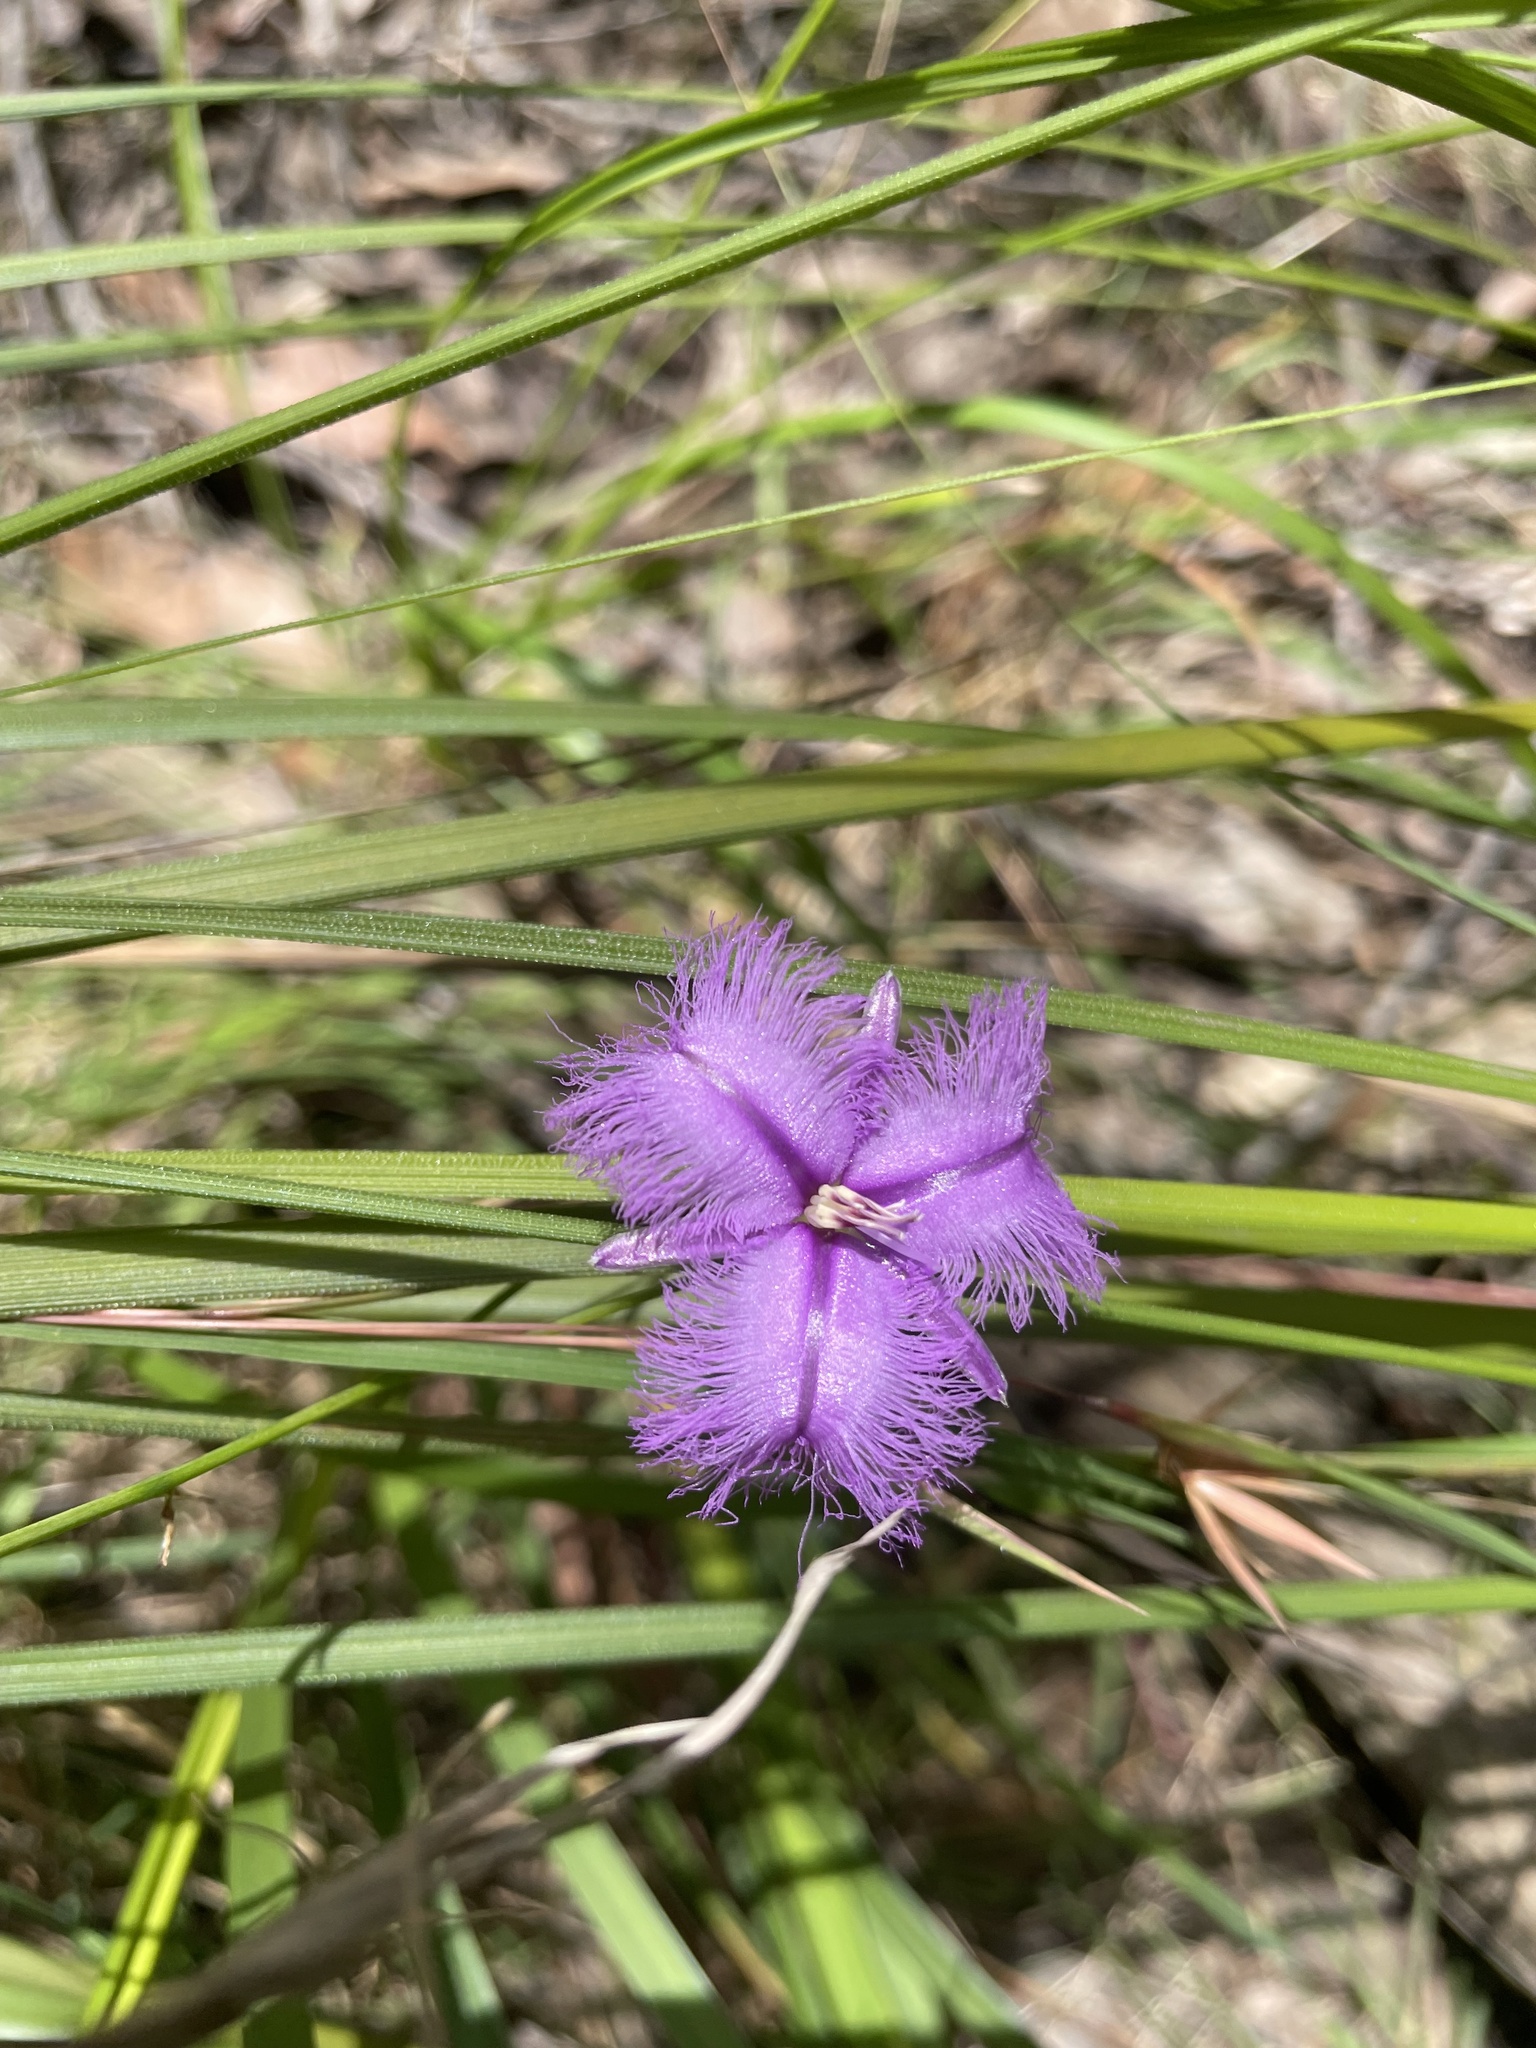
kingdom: Plantae
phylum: Tracheophyta
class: Liliopsida
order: Asparagales
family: Asparagaceae
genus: Thysanotus
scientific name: Thysanotus tuberosus
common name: Common fringed-lily
